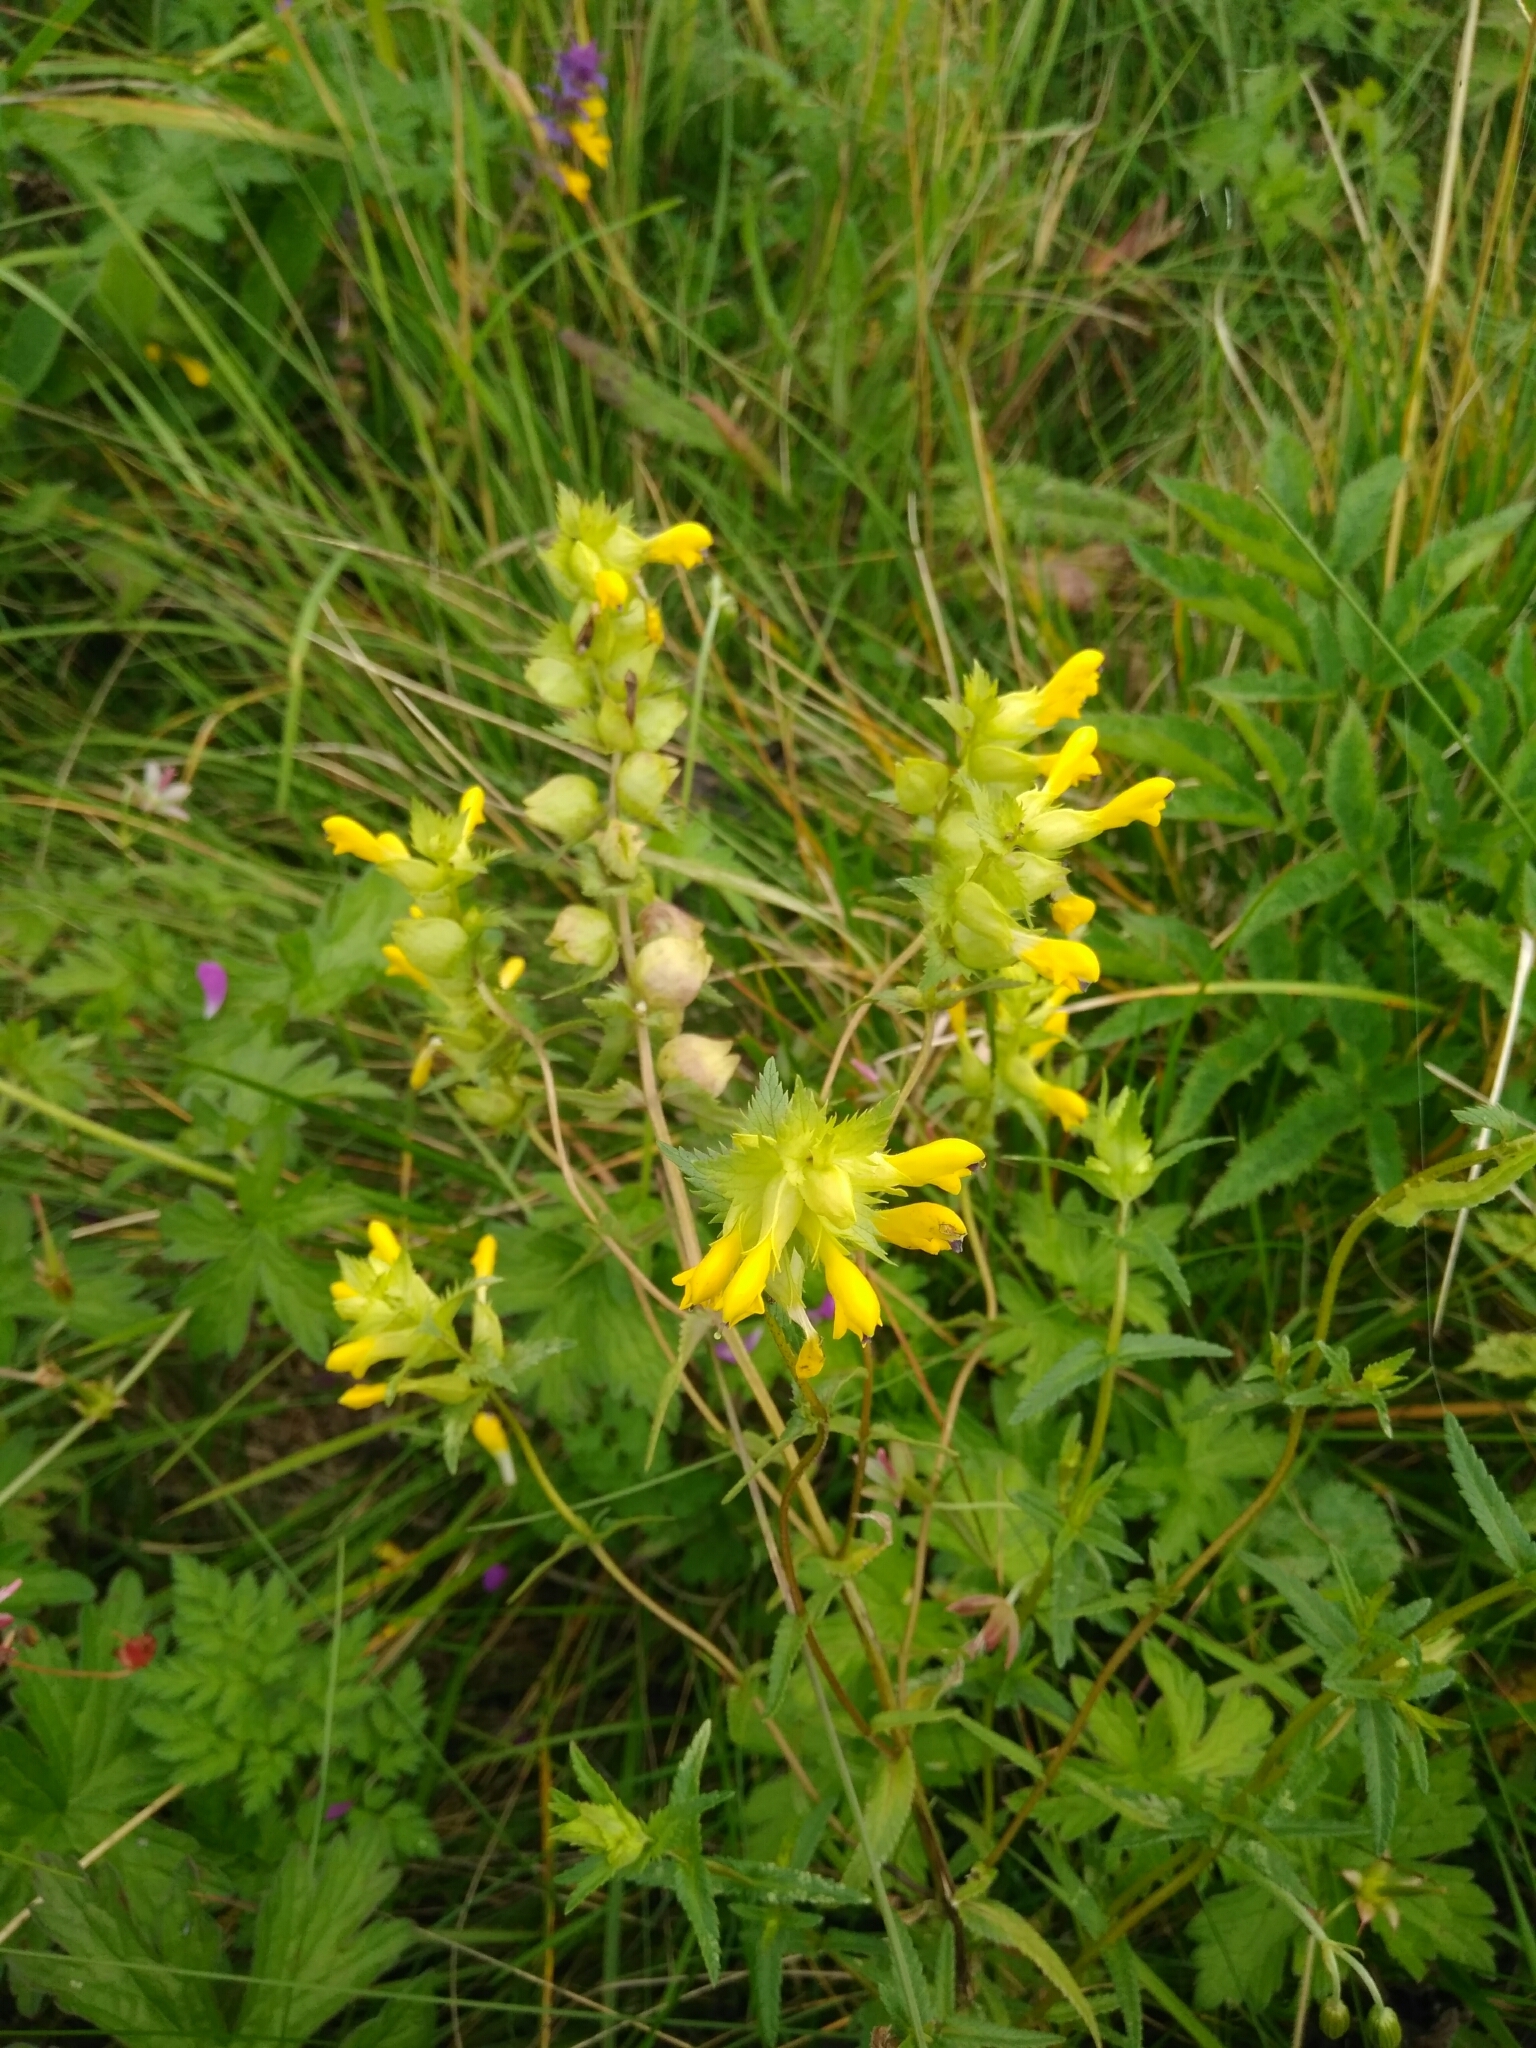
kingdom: Plantae
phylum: Tracheophyta
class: Magnoliopsida
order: Lamiales
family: Orobanchaceae
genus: Rhinanthus
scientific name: Rhinanthus serotinus
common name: Late-flowering yellow rattle
